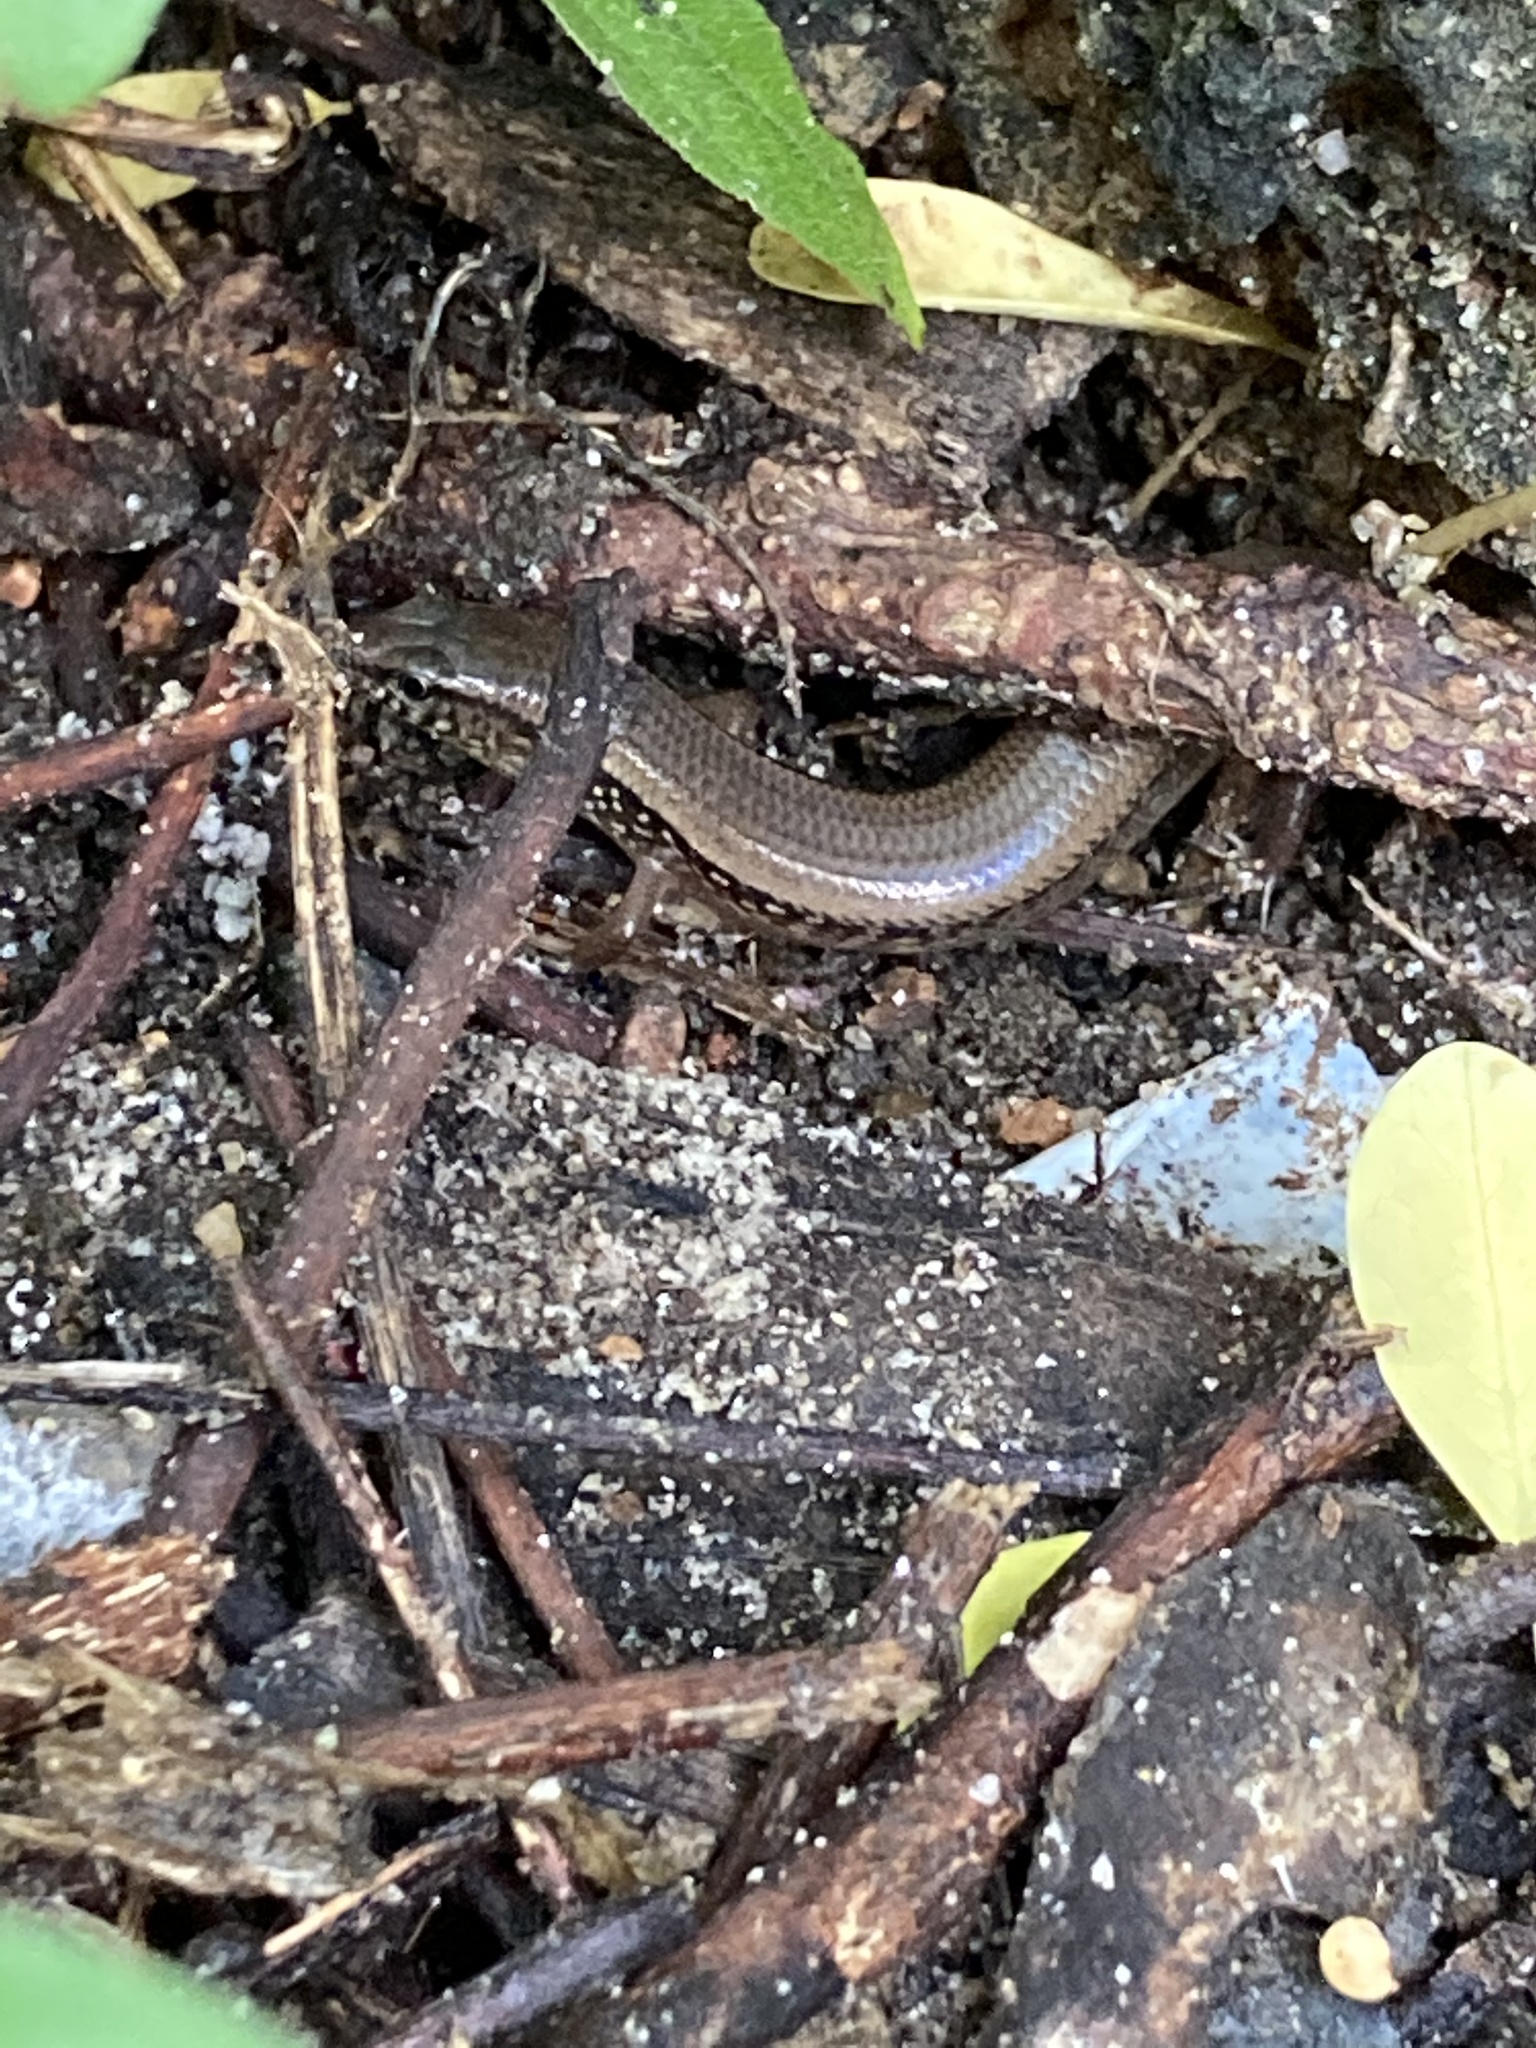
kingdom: Animalia
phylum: Chordata
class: Squamata
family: Scincidae
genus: Riopa
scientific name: Riopa albopunctata
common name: White-spotted supple skink
